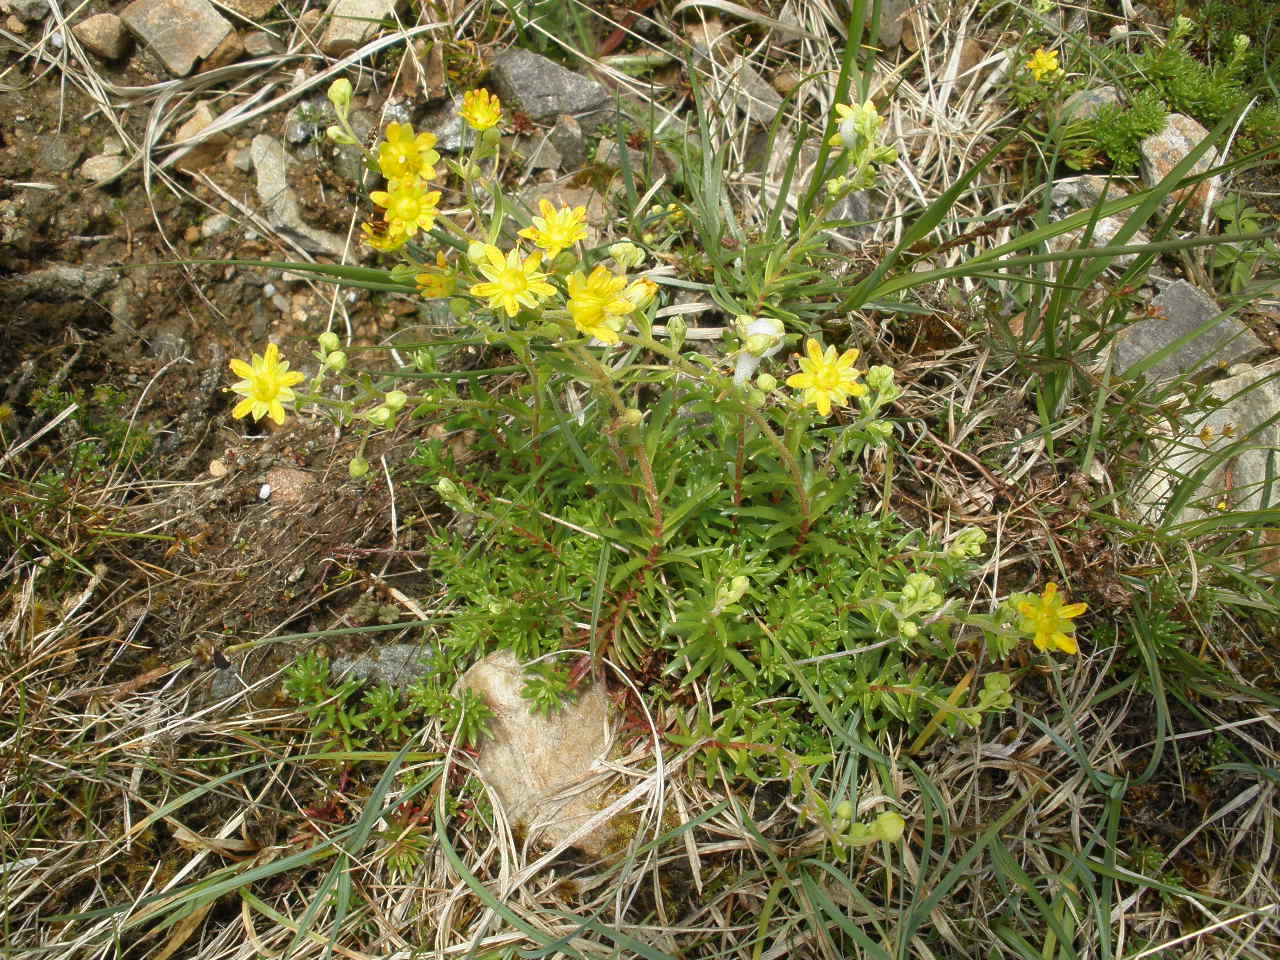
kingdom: Plantae
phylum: Tracheophyta
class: Magnoliopsida
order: Saxifragales
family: Saxifragaceae
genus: Saxifraga
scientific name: Saxifraga aizoides
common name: Yellow mountain saxifrage
